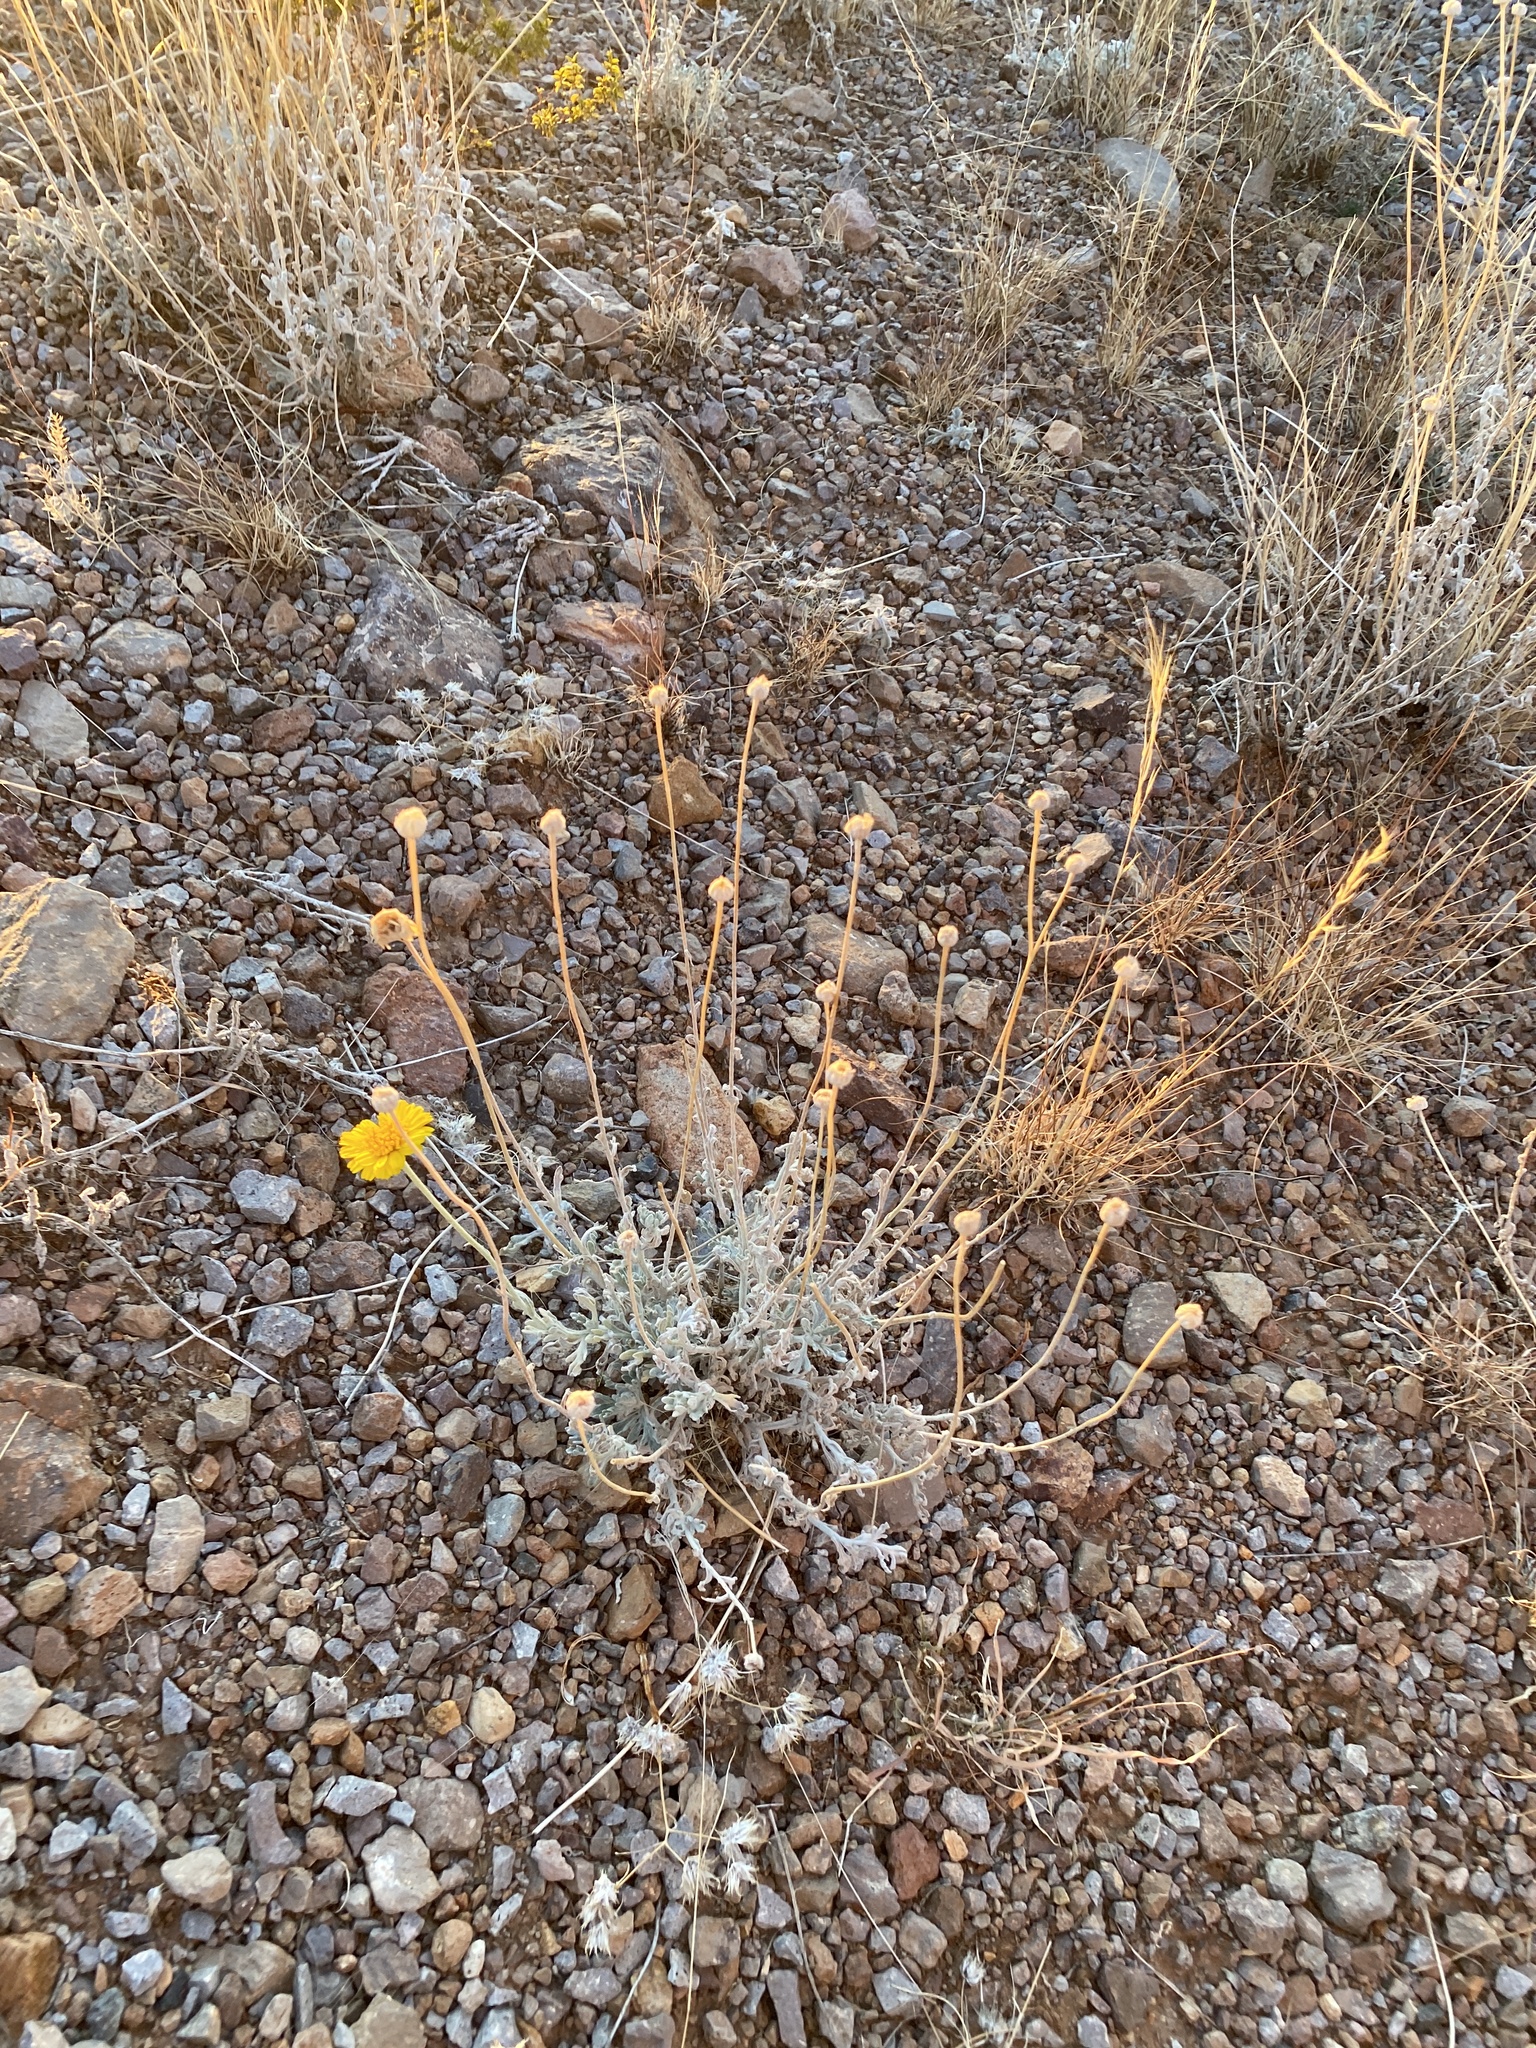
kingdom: Plantae
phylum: Tracheophyta
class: Magnoliopsida
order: Asterales
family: Asteraceae
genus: Baileya
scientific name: Baileya multiradiata
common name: Desert-marigold
